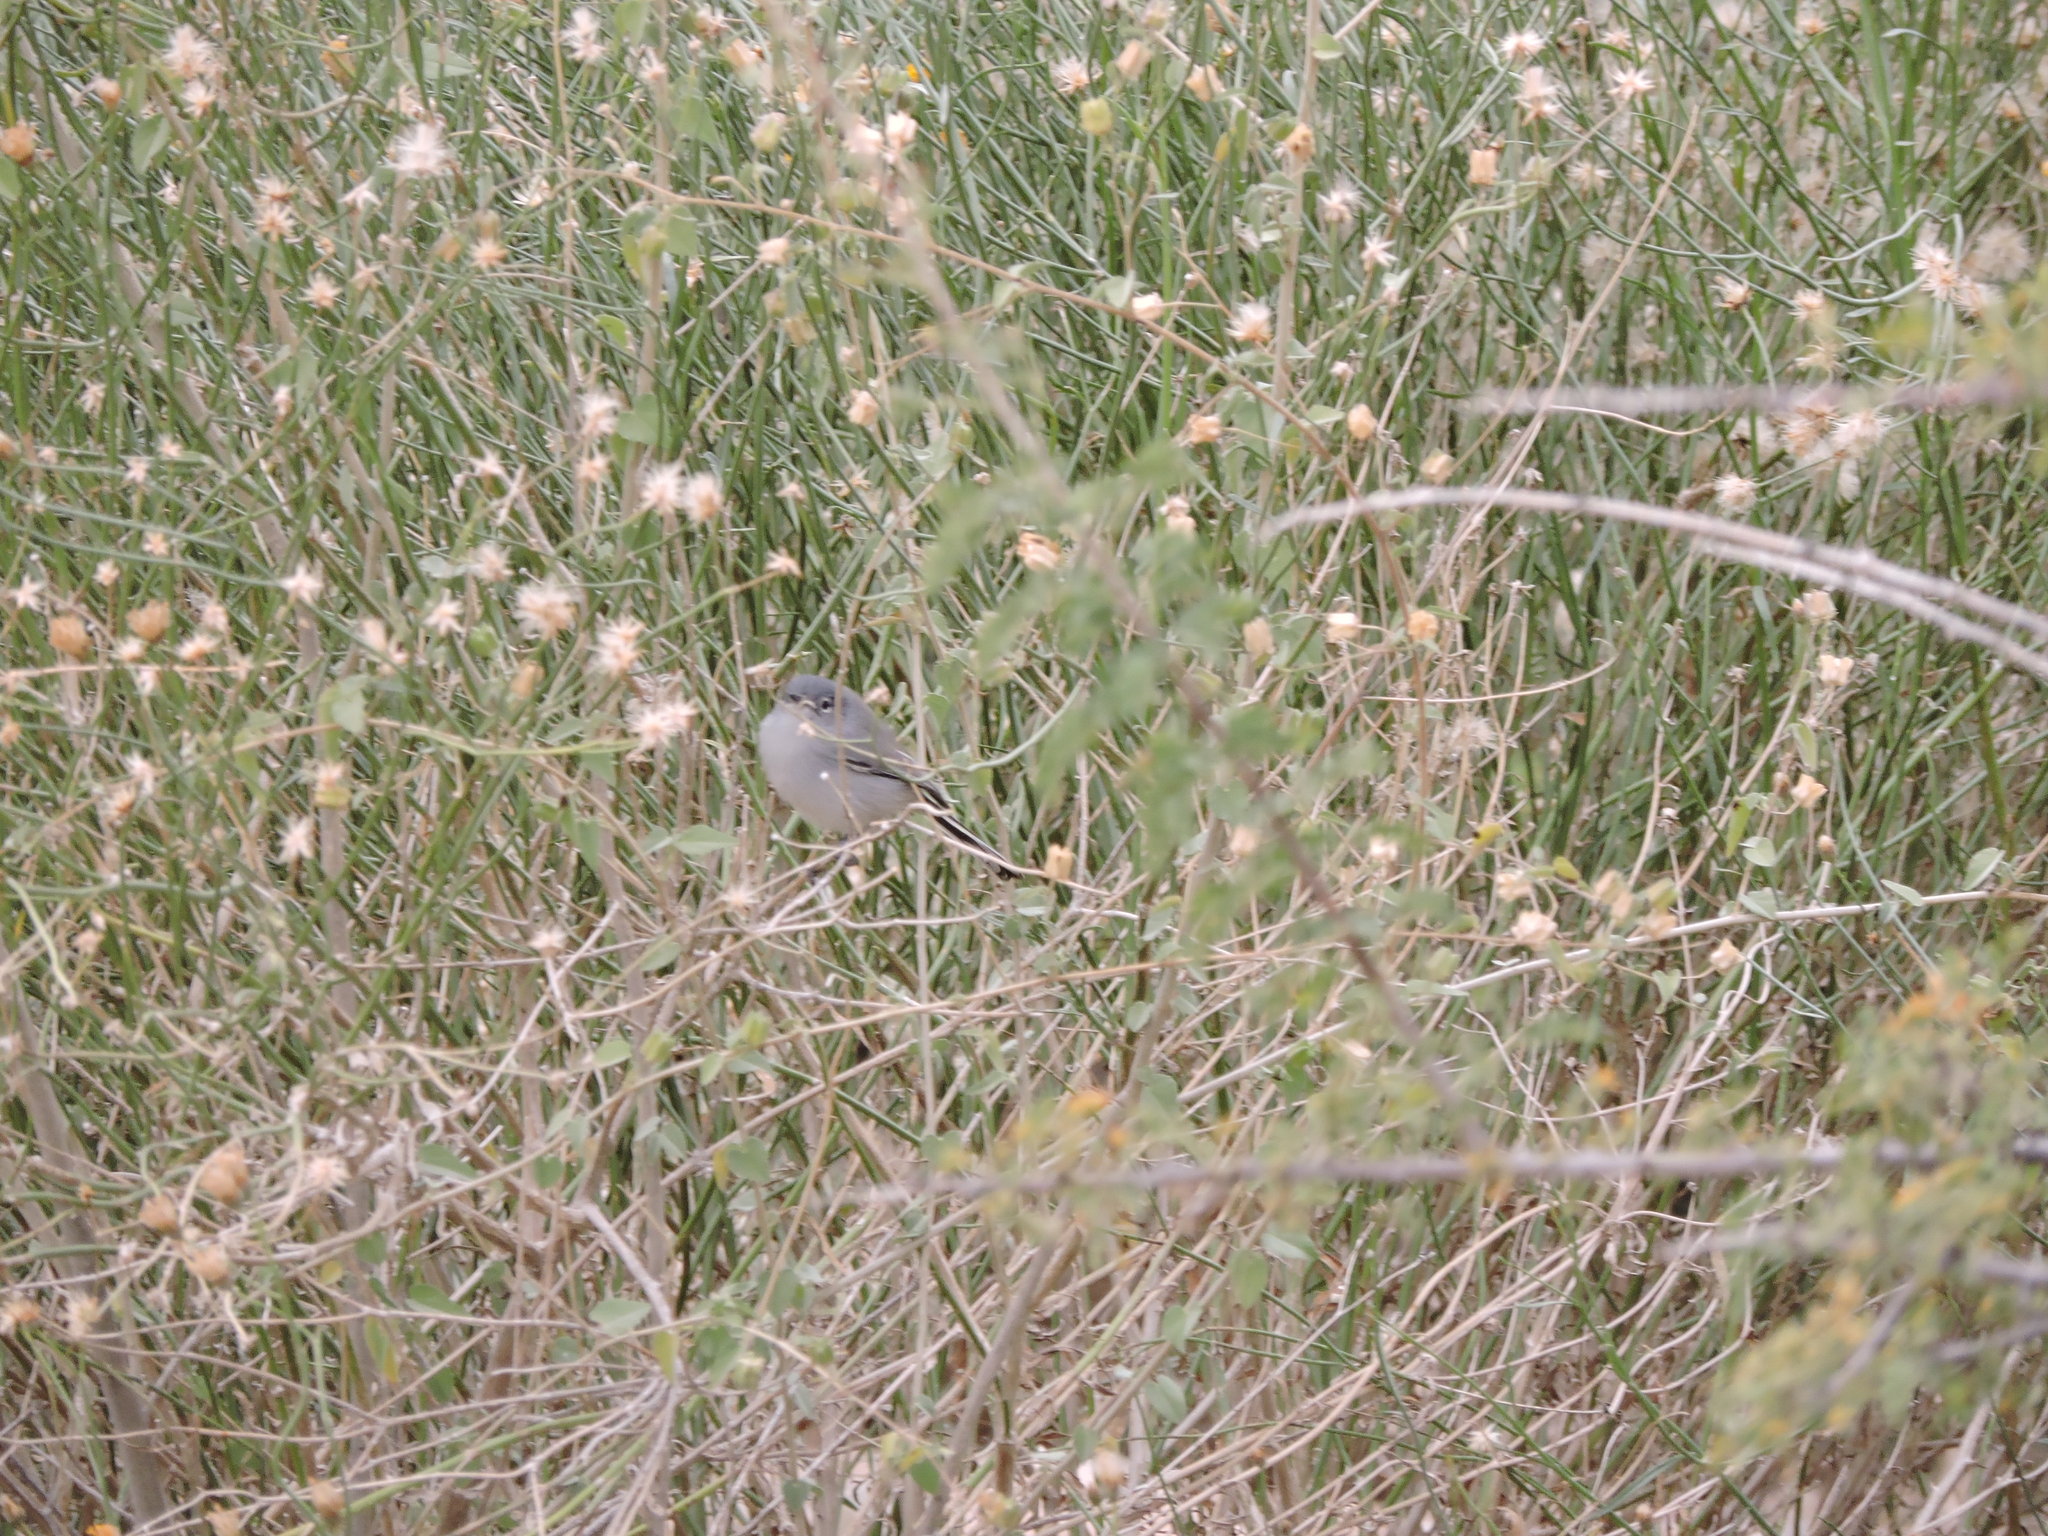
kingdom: Animalia
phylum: Chordata
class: Aves
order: Passeriformes
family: Polioptilidae
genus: Polioptila
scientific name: Polioptila melanura
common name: Black-tailed gnatcatcher
